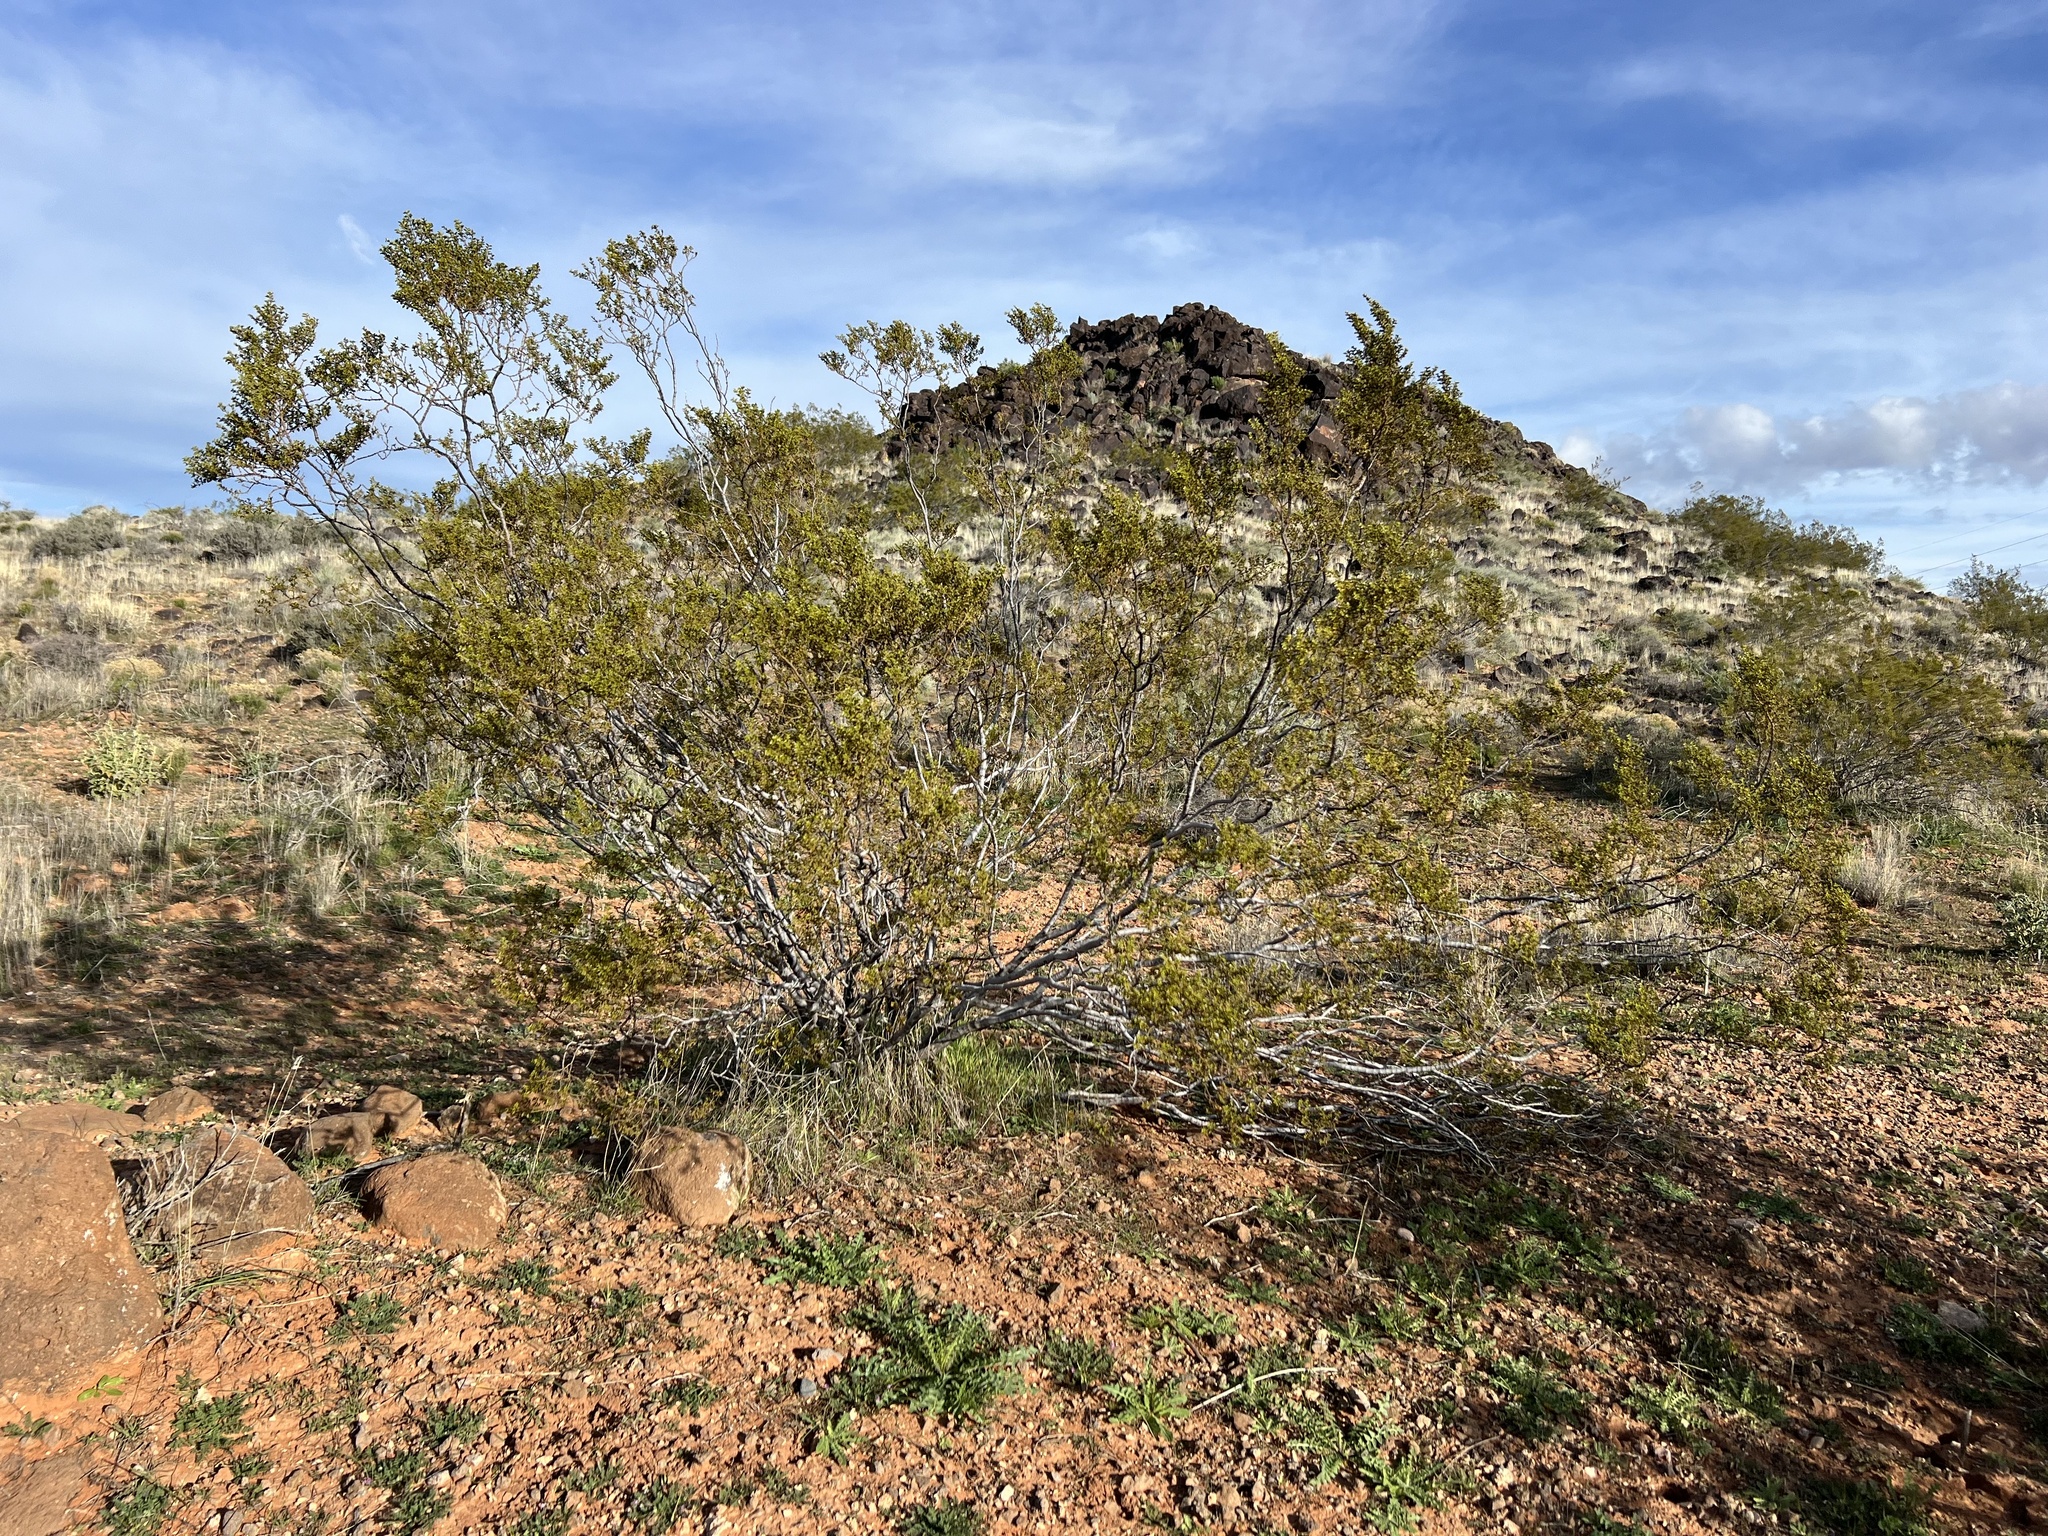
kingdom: Plantae
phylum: Tracheophyta
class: Magnoliopsida
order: Zygophyllales
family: Zygophyllaceae
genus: Larrea
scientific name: Larrea tridentata
